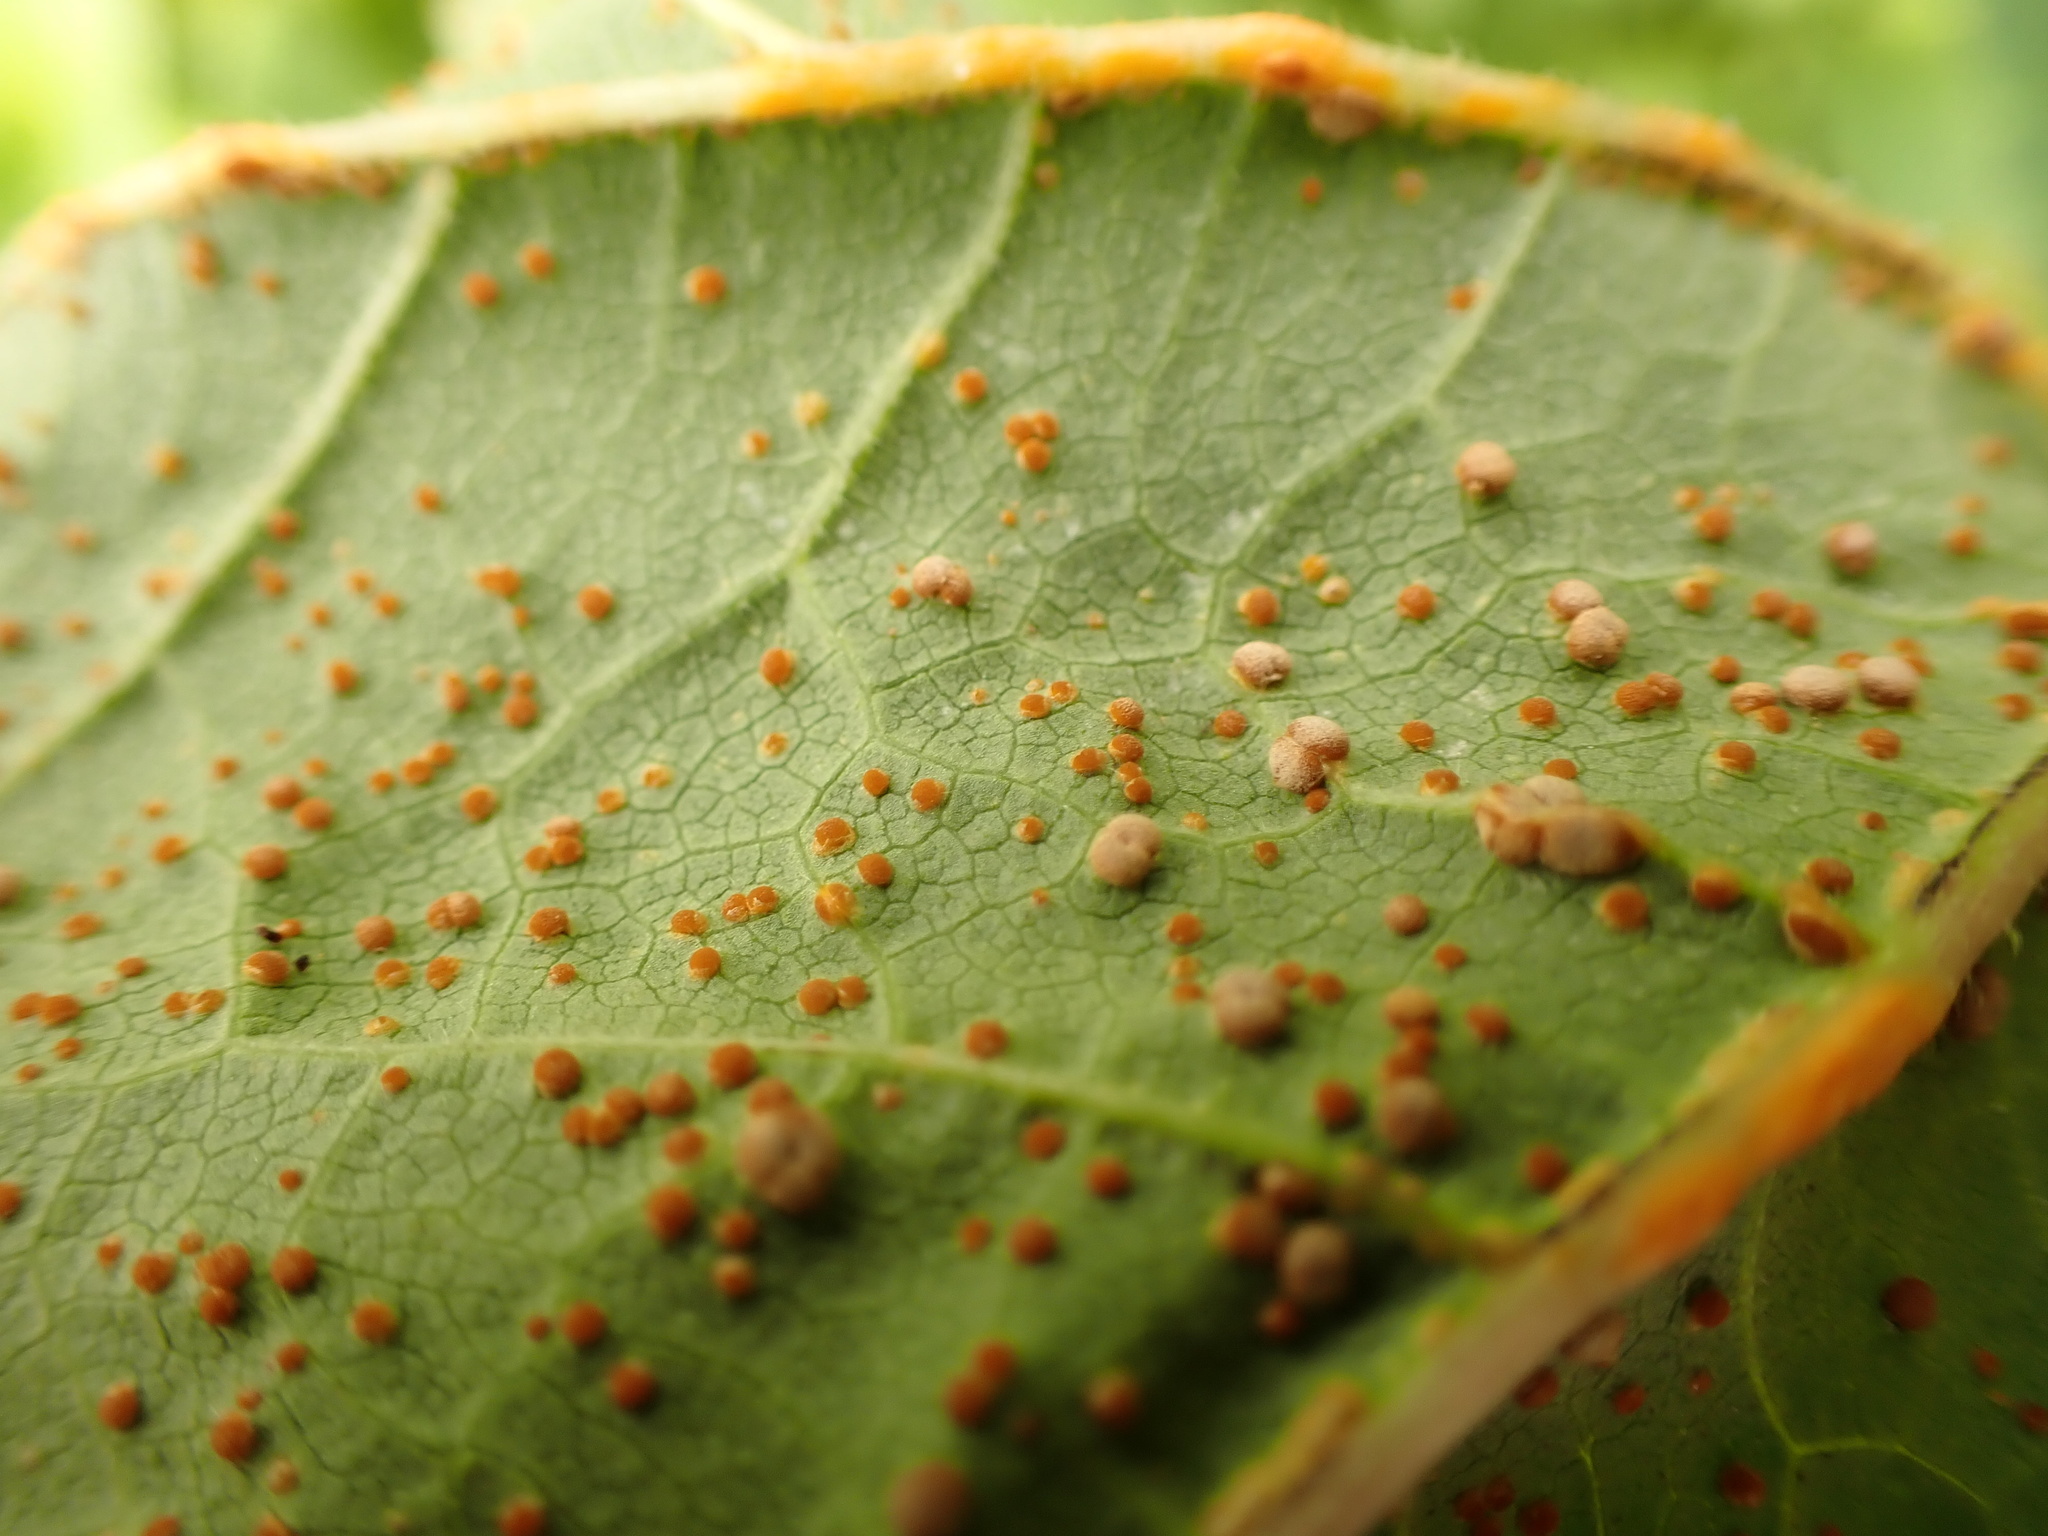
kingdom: Fungi
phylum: Basidiomycota
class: Pucciniomycetes
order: Pucciniales
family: Pucciniaceae
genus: Puccinia
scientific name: Puccinia malvacearum
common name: Hollyhock rust
